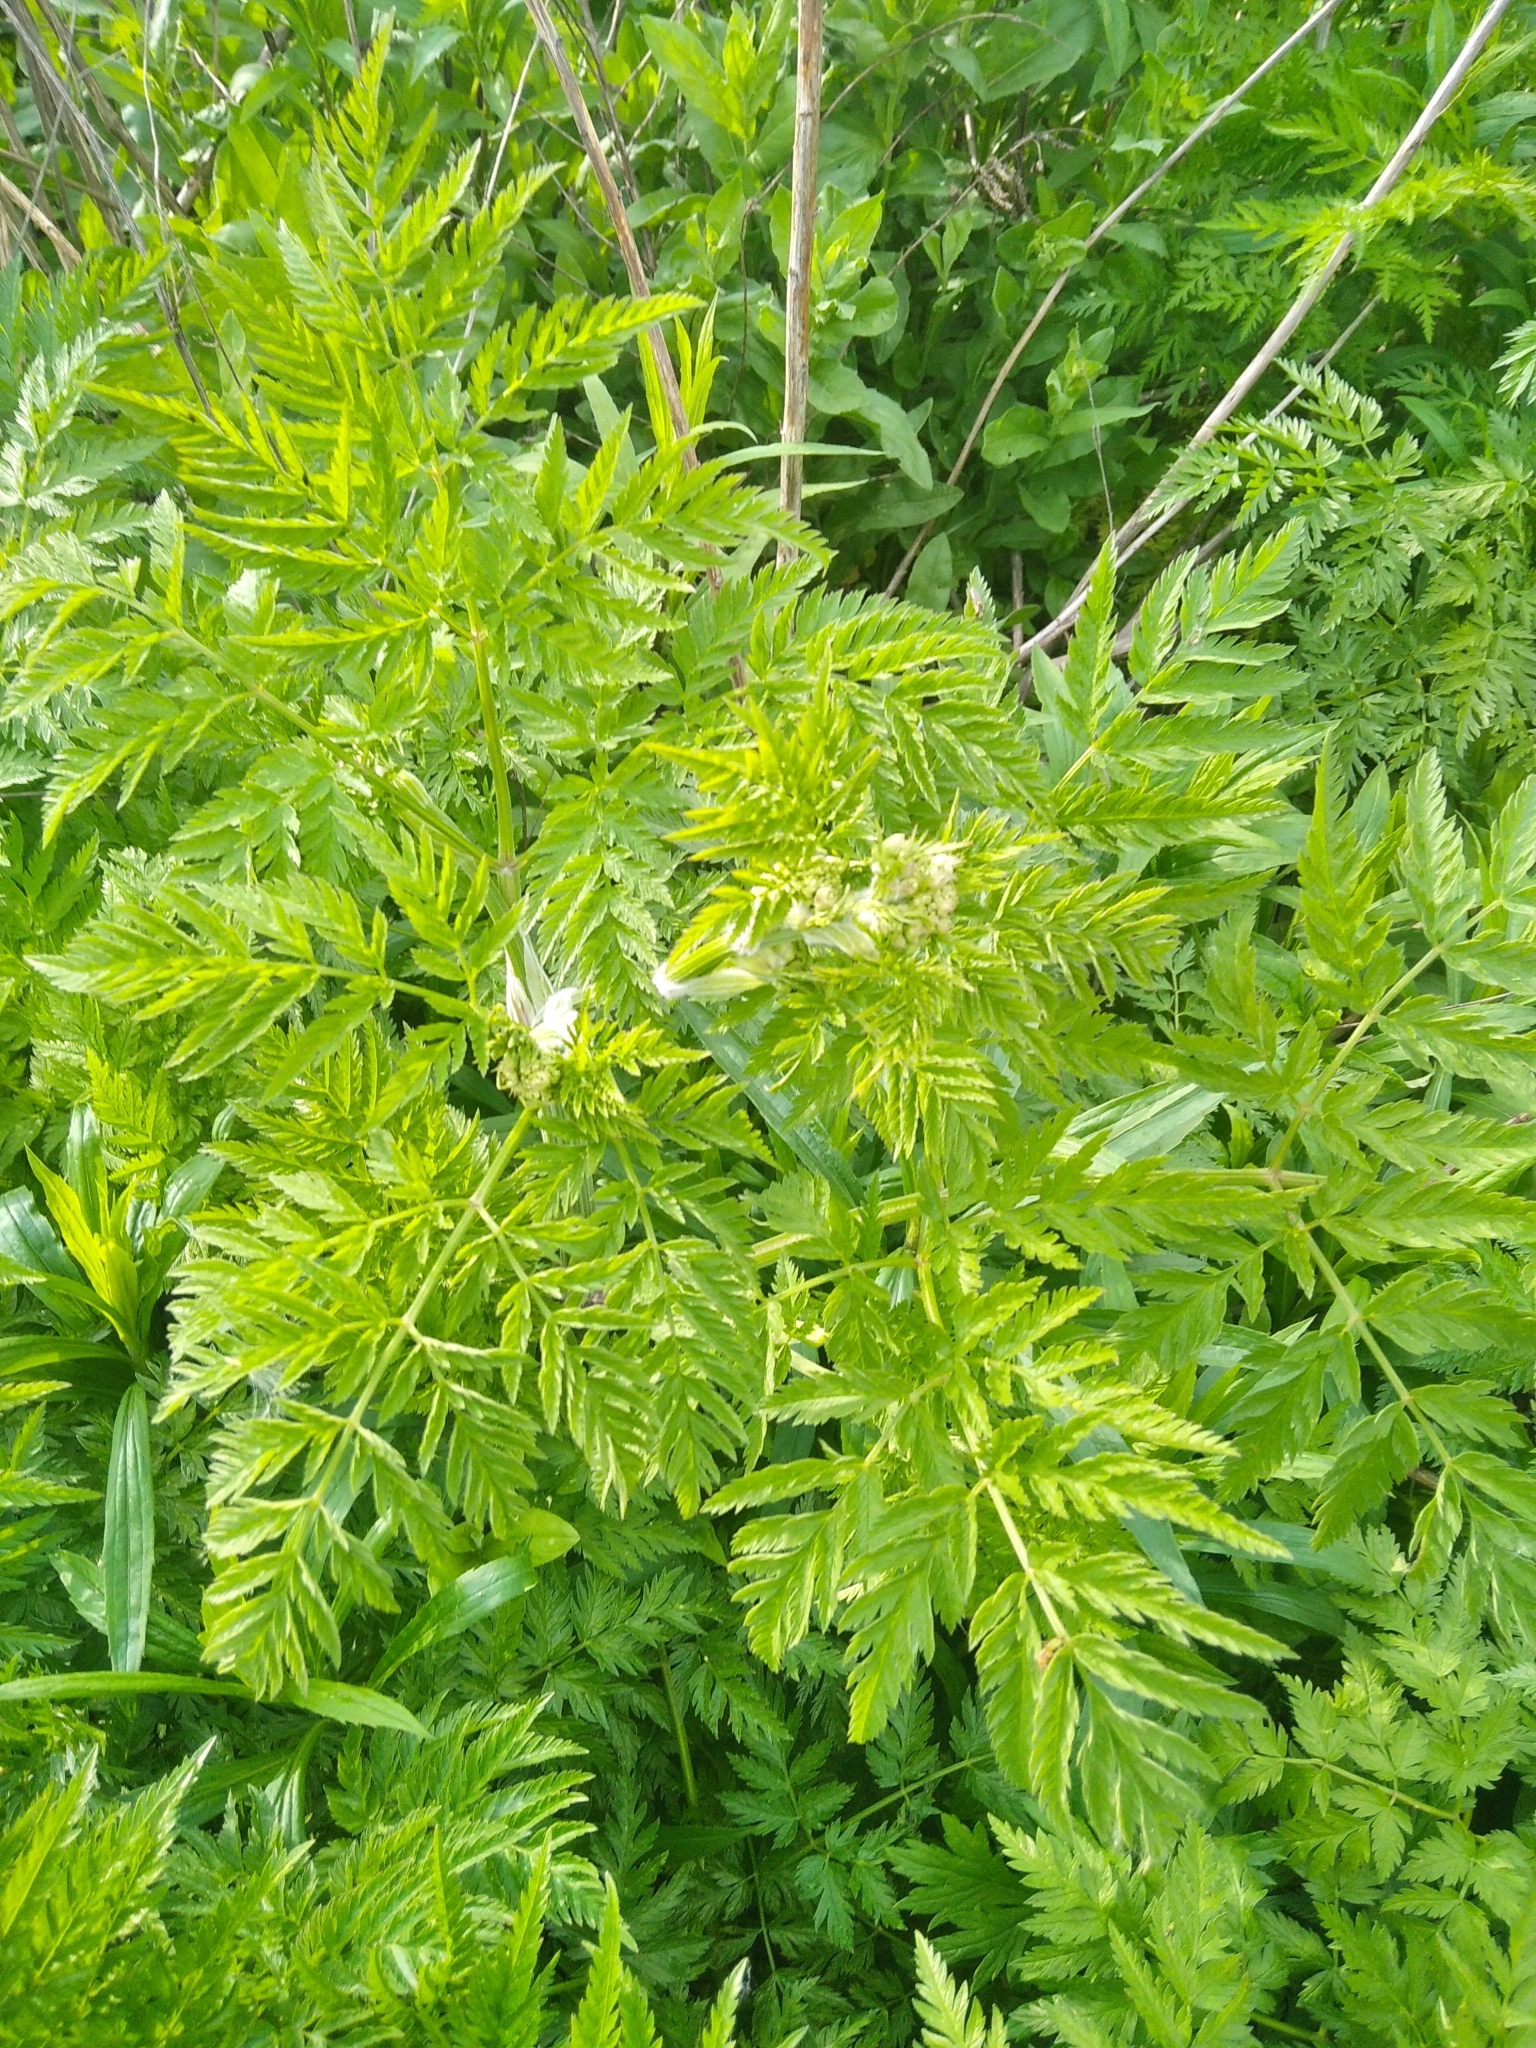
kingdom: Plantae
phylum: Tracheophyta
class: Magnoliopsida
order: Apiales
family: Apiaceae
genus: Anthriscus
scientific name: Anthriscus sylvestris
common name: Cow parsley
